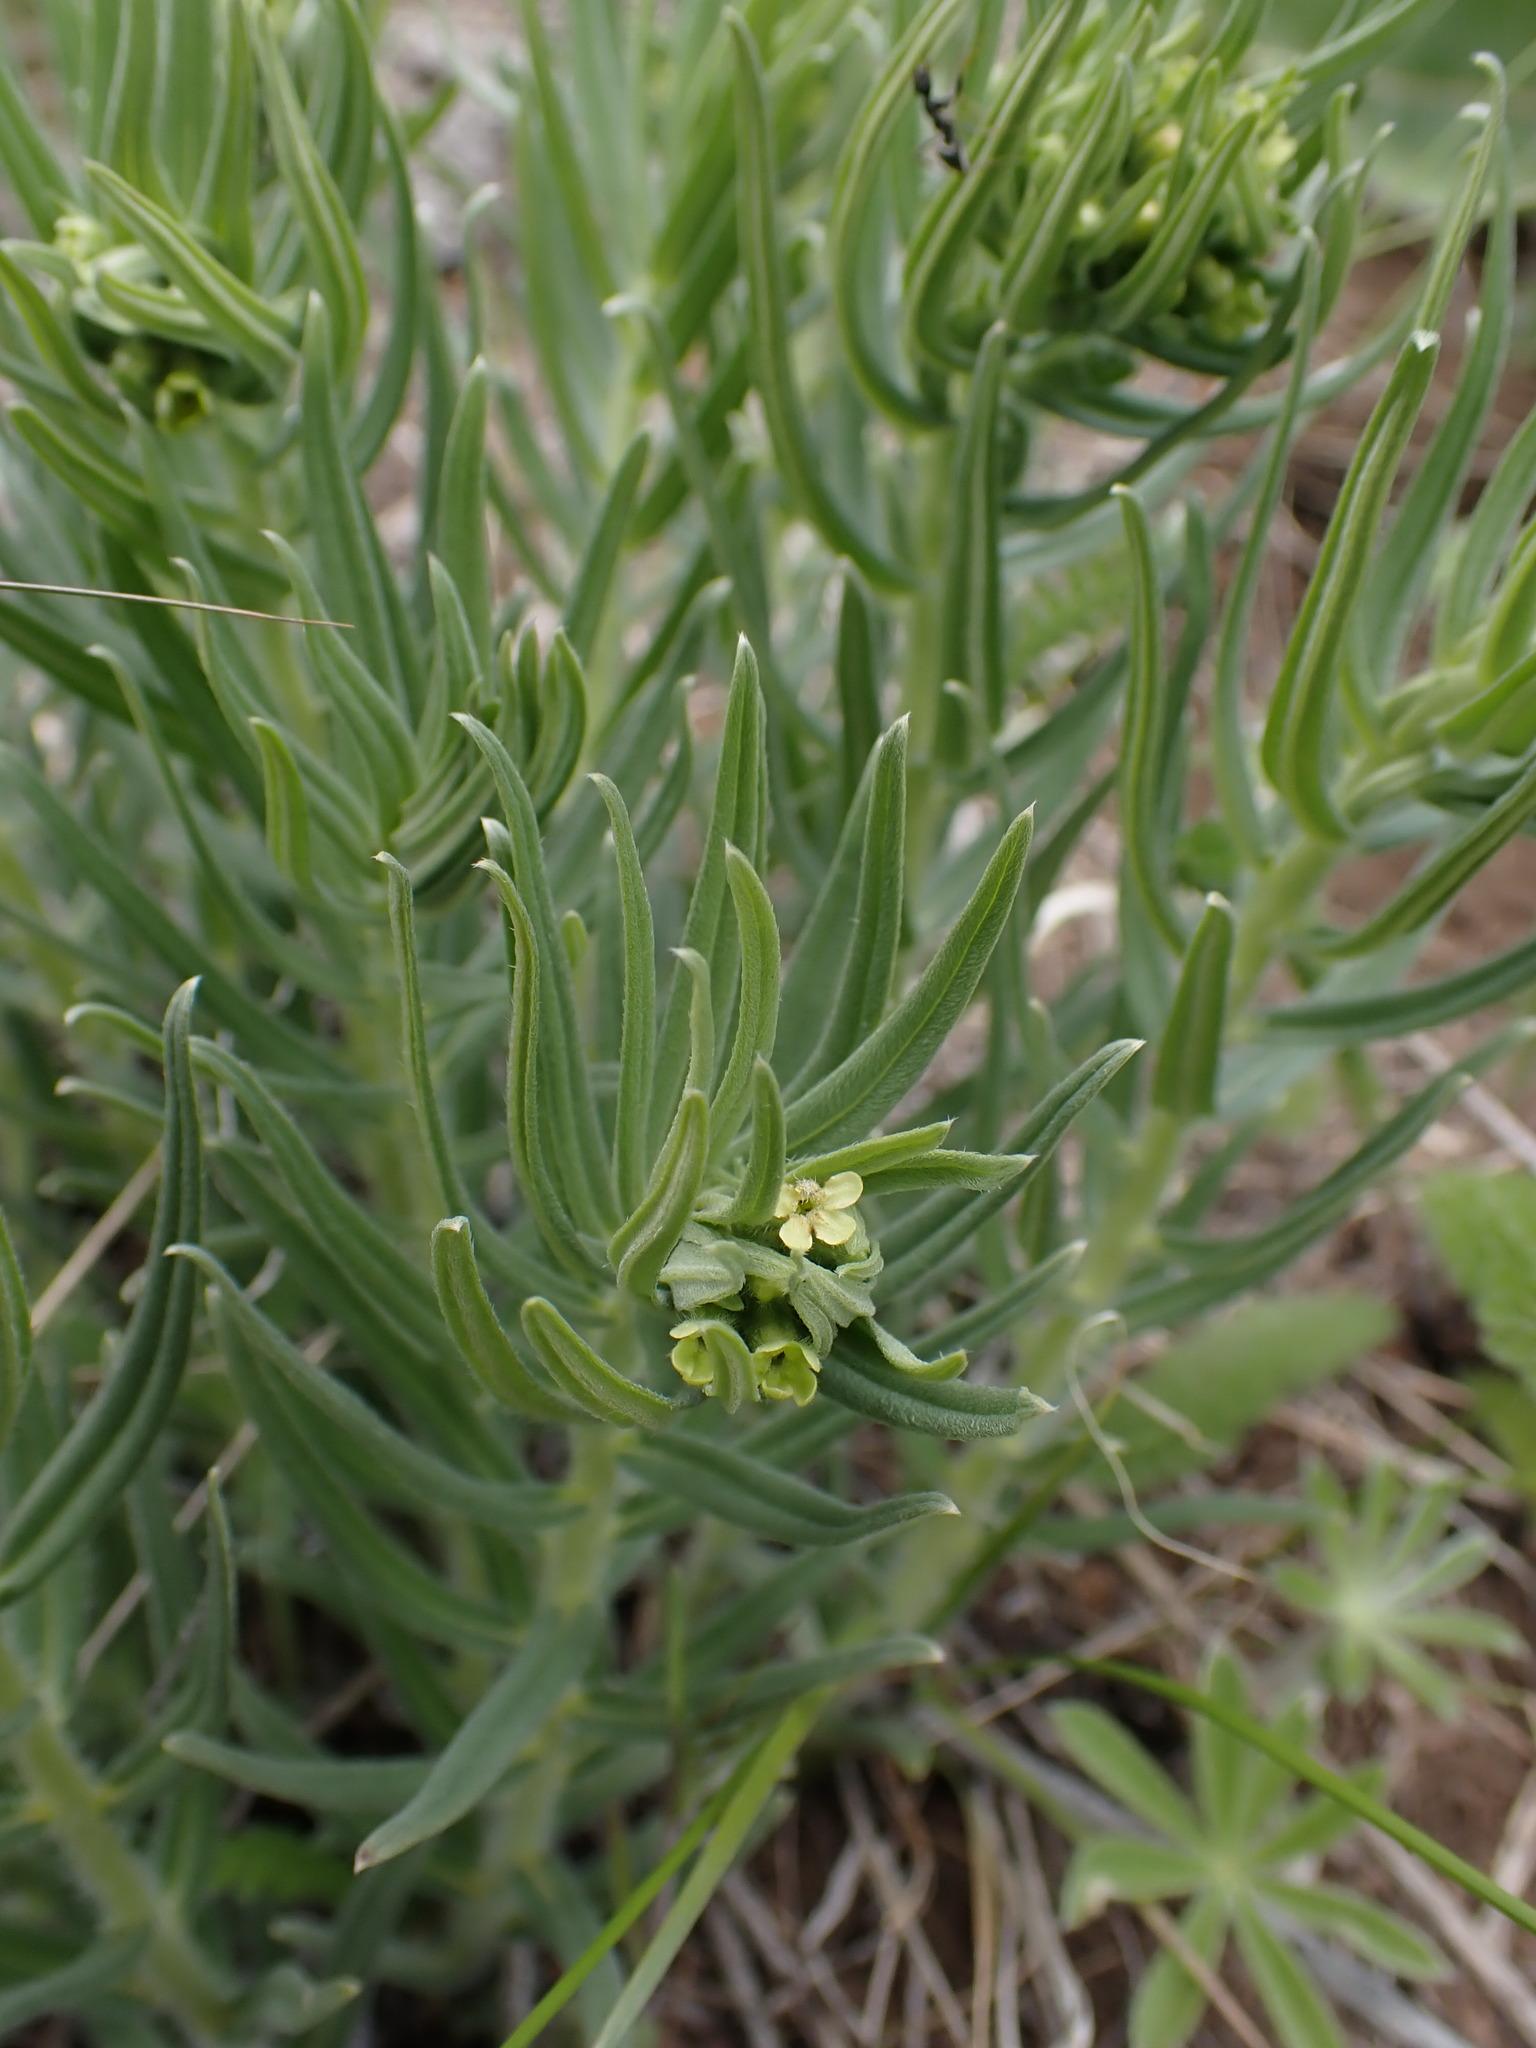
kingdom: Plantae
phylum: Tracheophyta
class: Magnoliopsida
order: Boraginales
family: Boraginaceae
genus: Lithospermum
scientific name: Lithospermum ruderale
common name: Western gromwell
